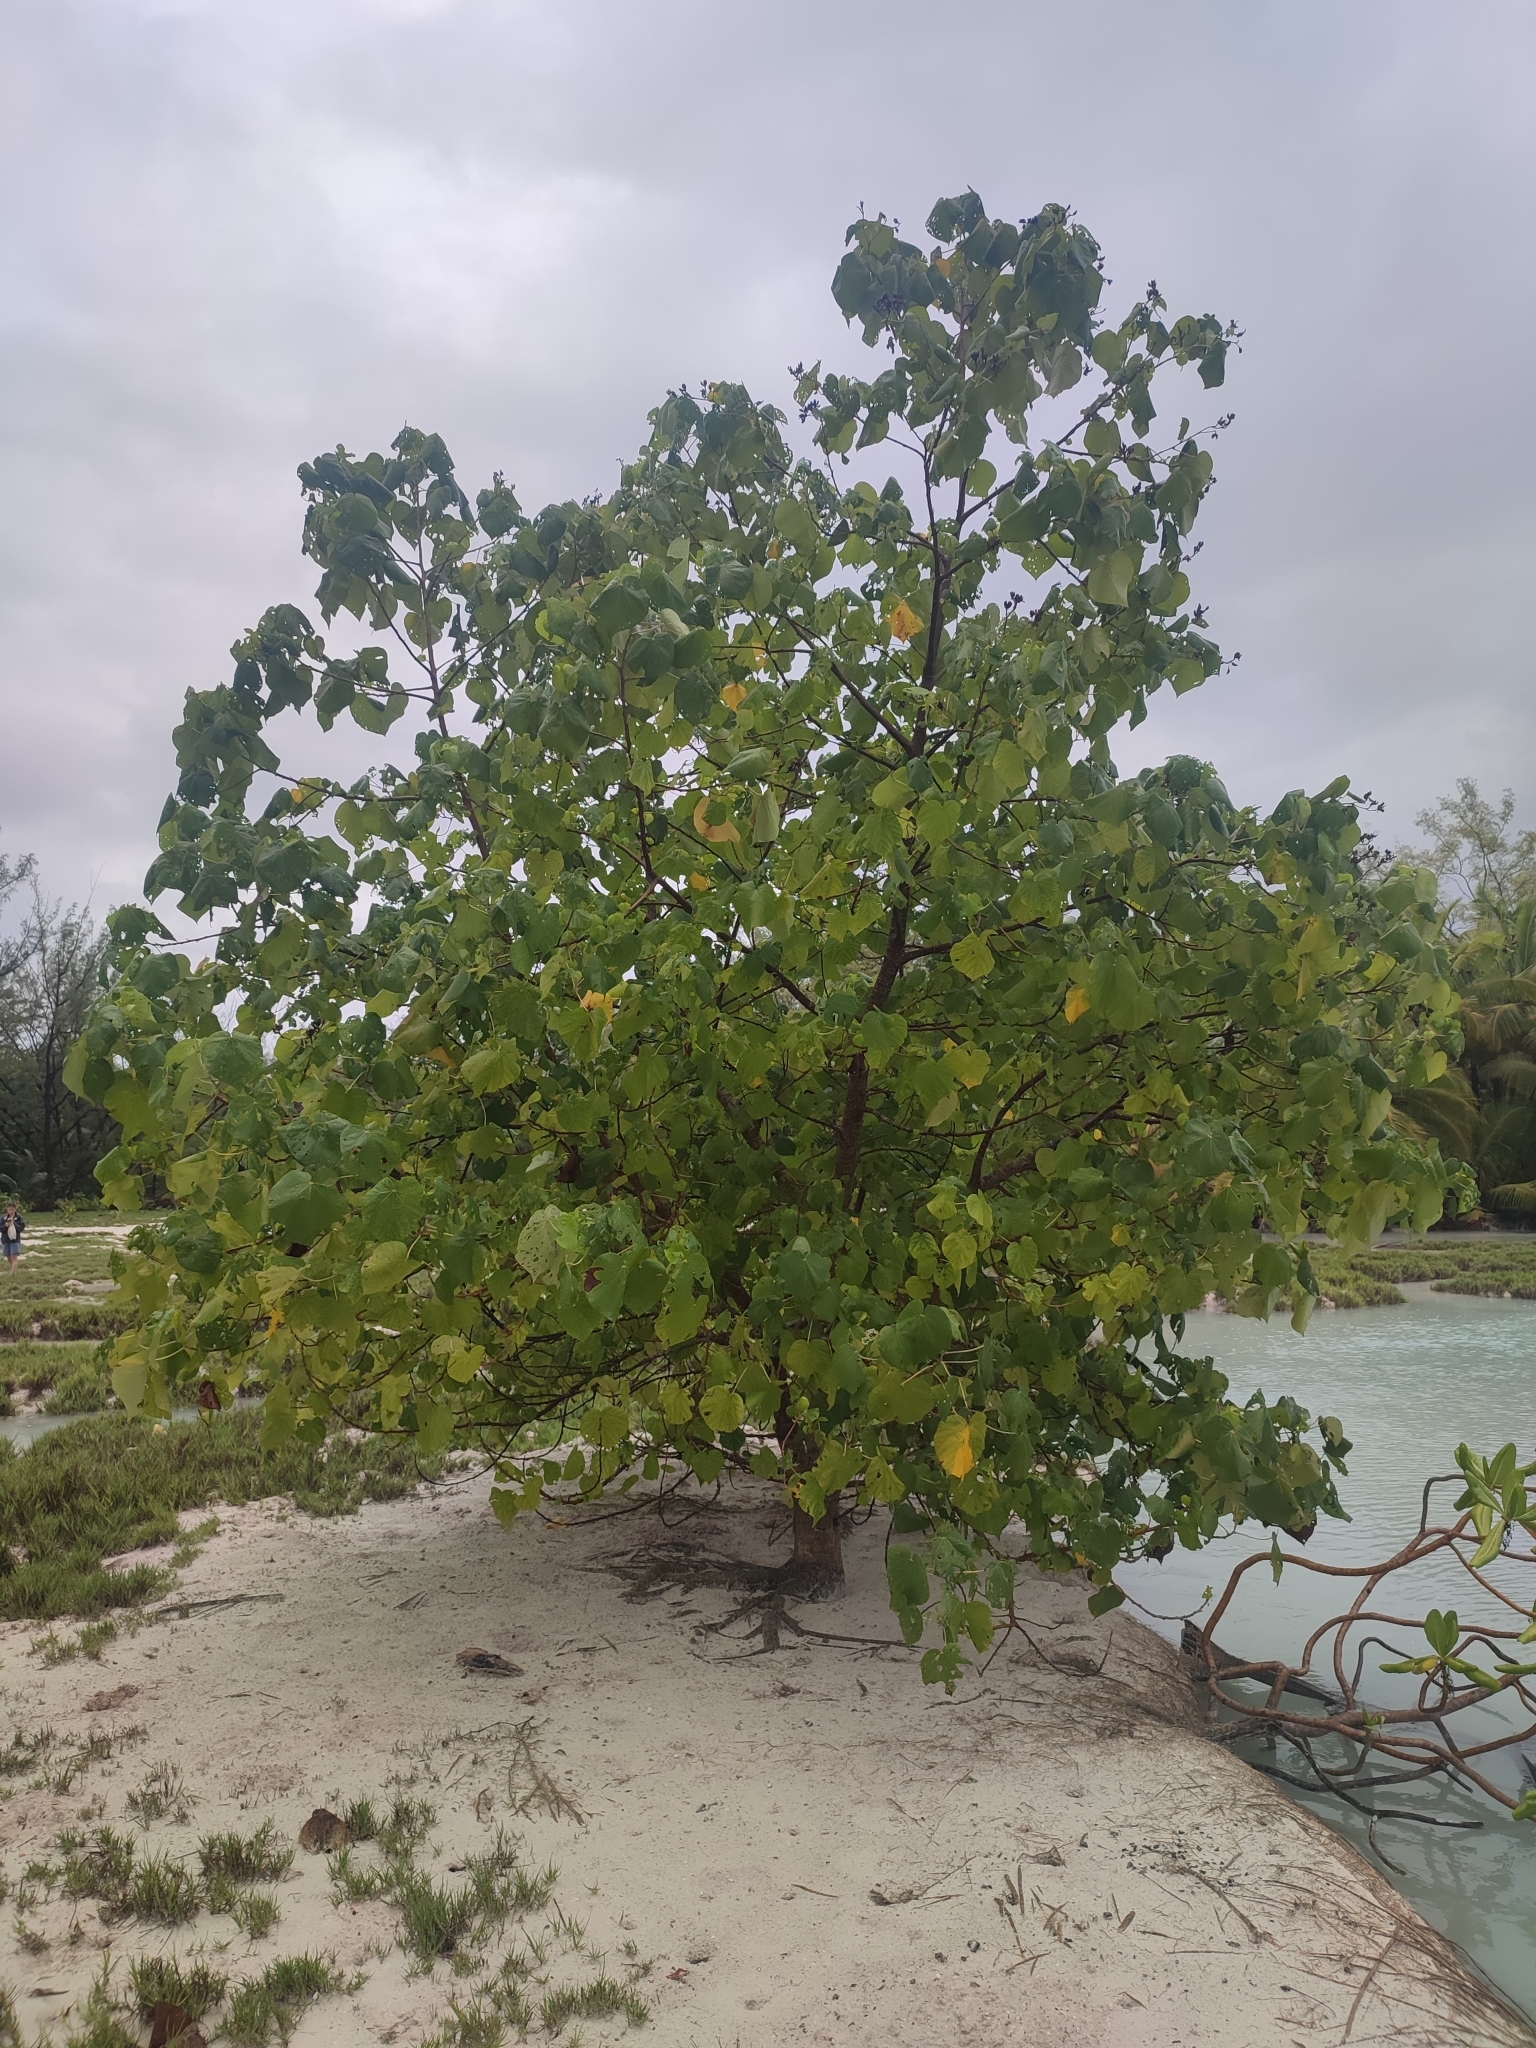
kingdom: Plantae
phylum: Tracheophyta
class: Magnoliopsida
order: Malvales
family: Malvaceae
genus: Talipariti
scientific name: Talipariti tiliaceum
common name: Sea hibiscus
